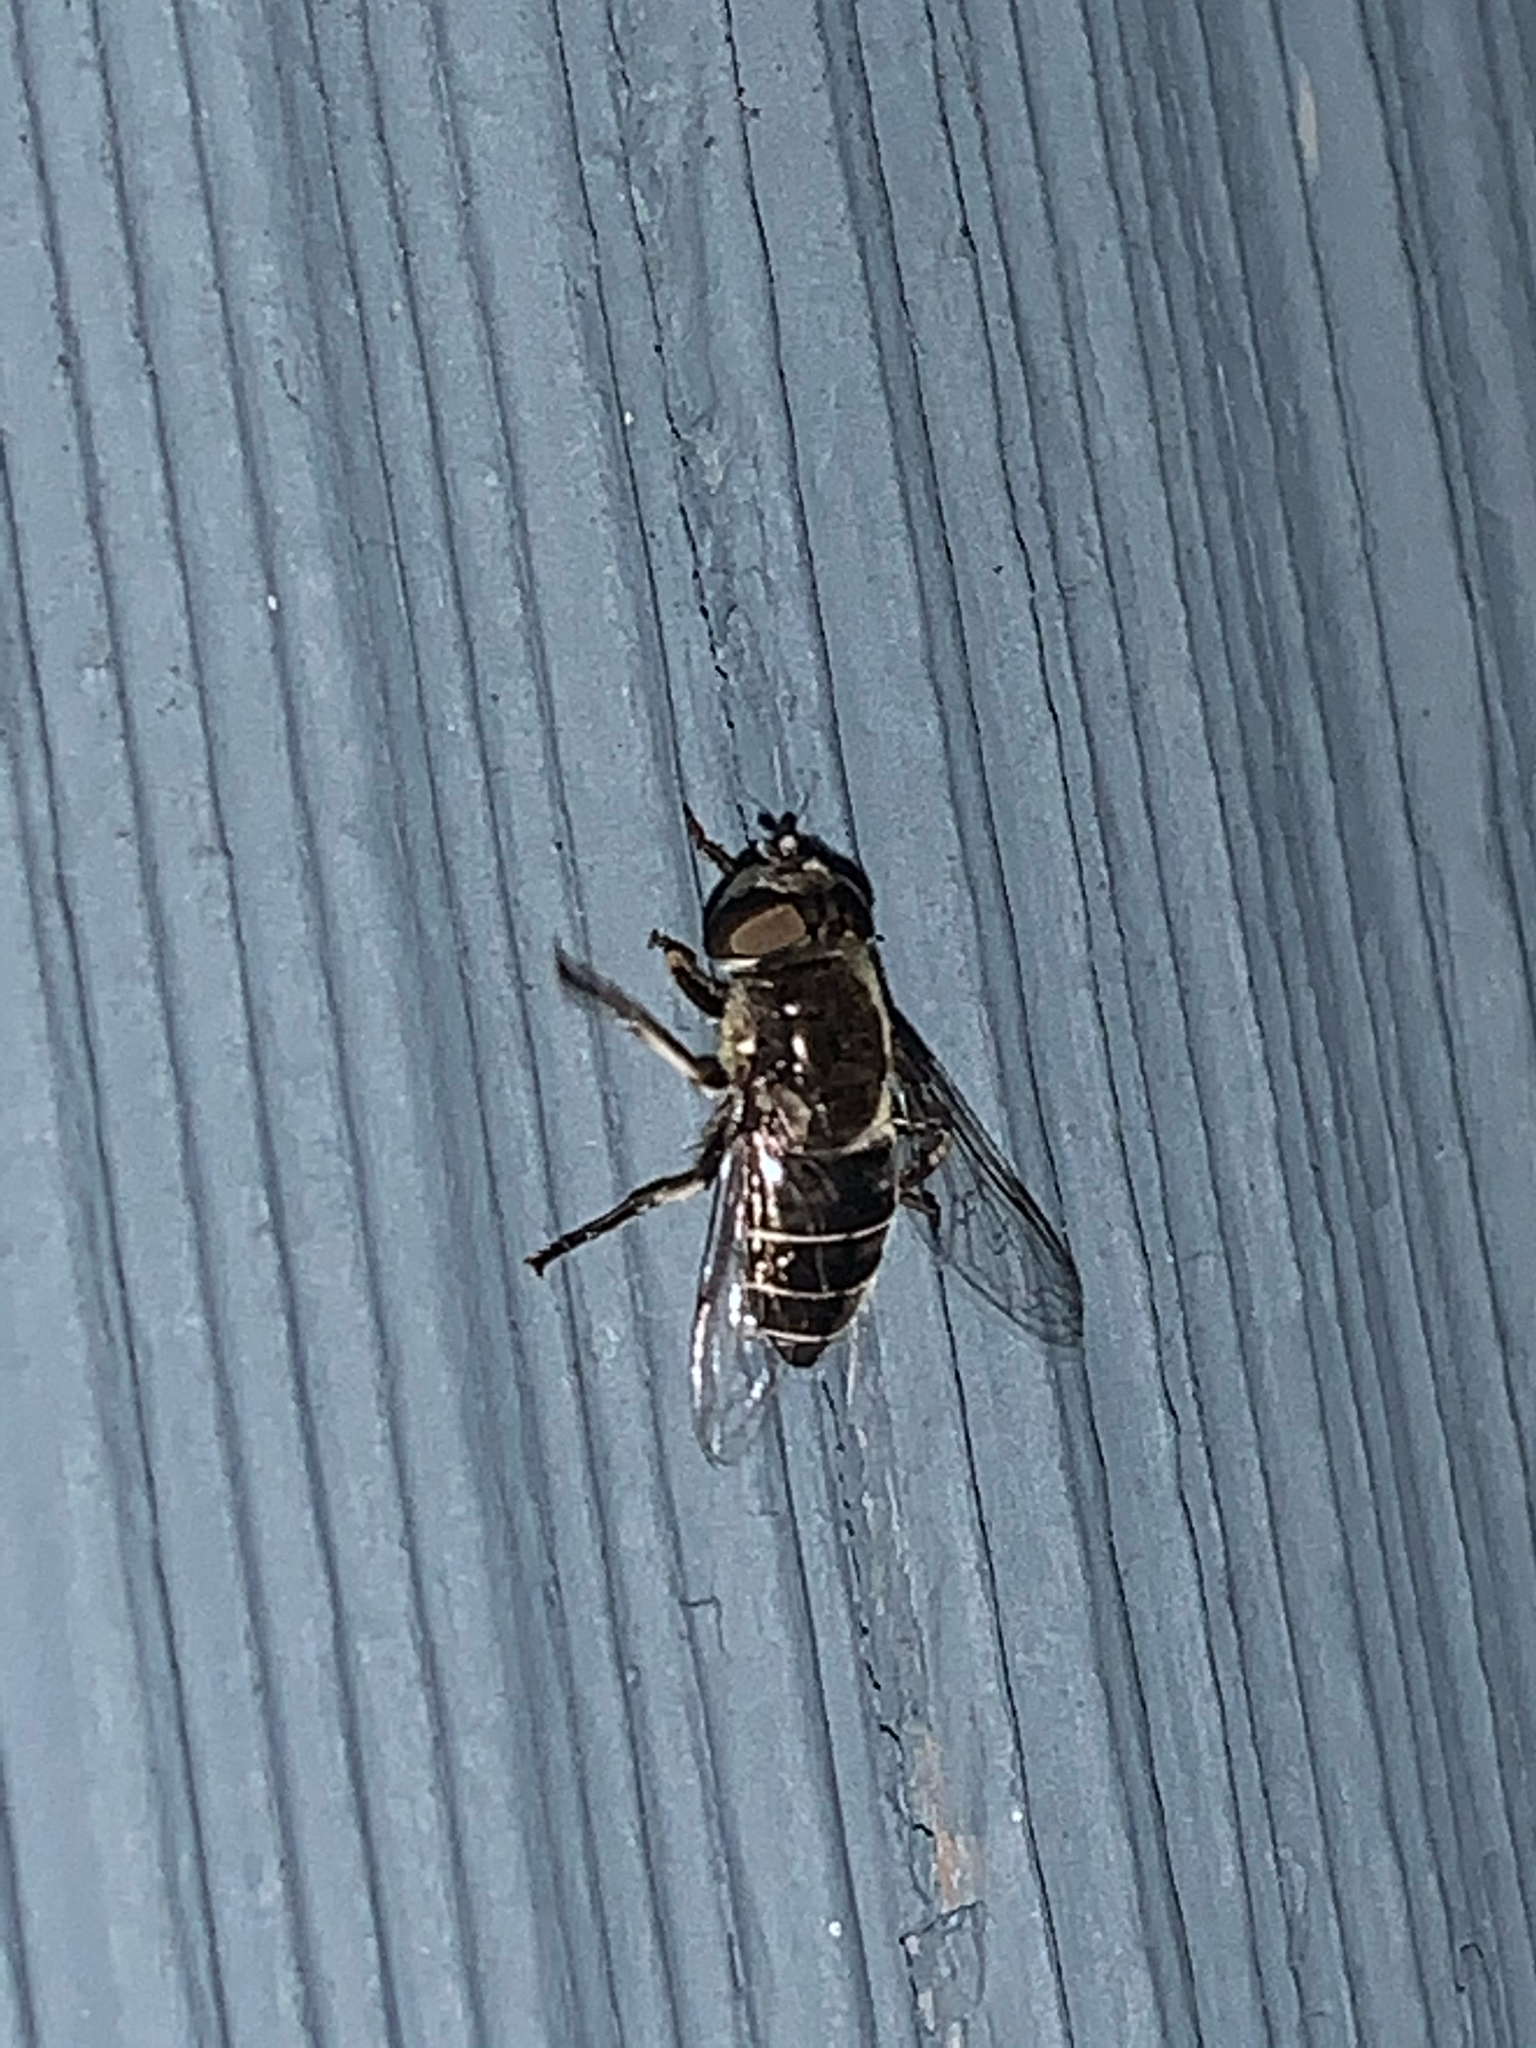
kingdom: Animalia
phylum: Arthropoda
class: Insecta
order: Diptera
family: Syrphidae
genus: Eristalis
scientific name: Eristalis dimidiata
